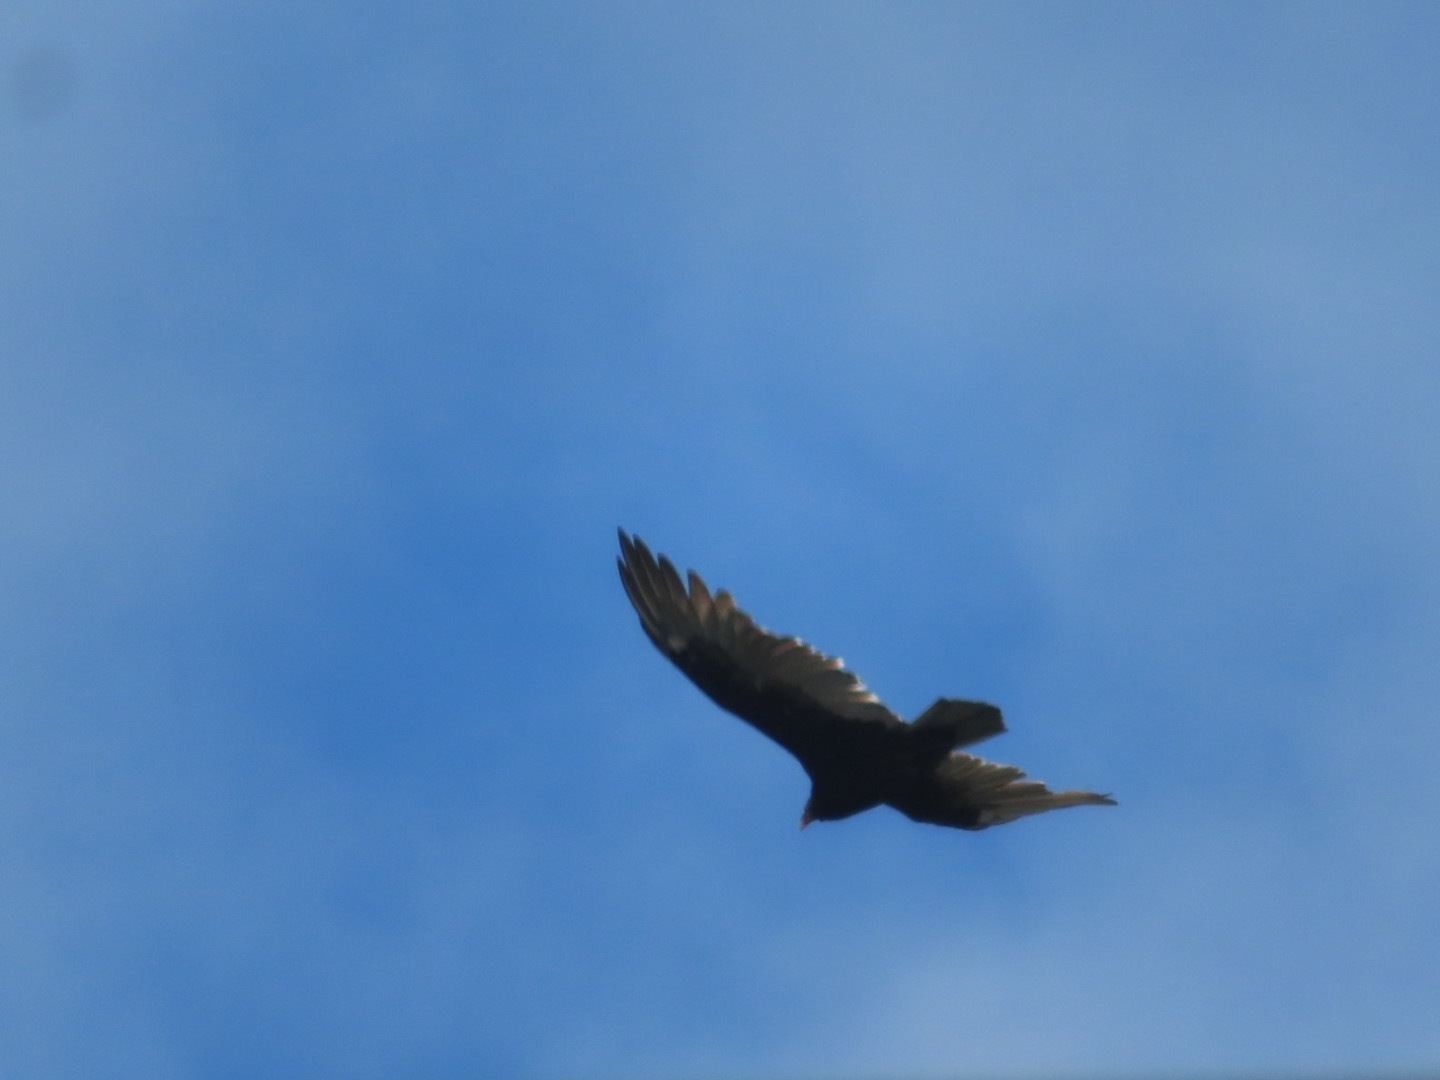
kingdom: Animalia
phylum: Chordata
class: Aves
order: Accipitriformes
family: Cathartidae
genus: Cathartes
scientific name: Cathartes aura
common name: Turkey vulture
